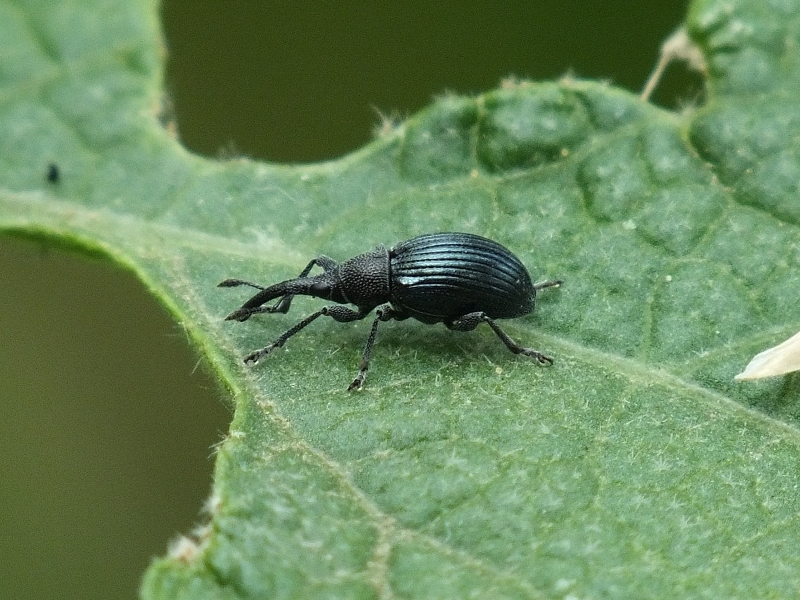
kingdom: Animalia
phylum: Arthropoda
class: Insecta
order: Coleoptera
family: Apionidae
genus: Aspidapion
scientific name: Aspidapion validum
